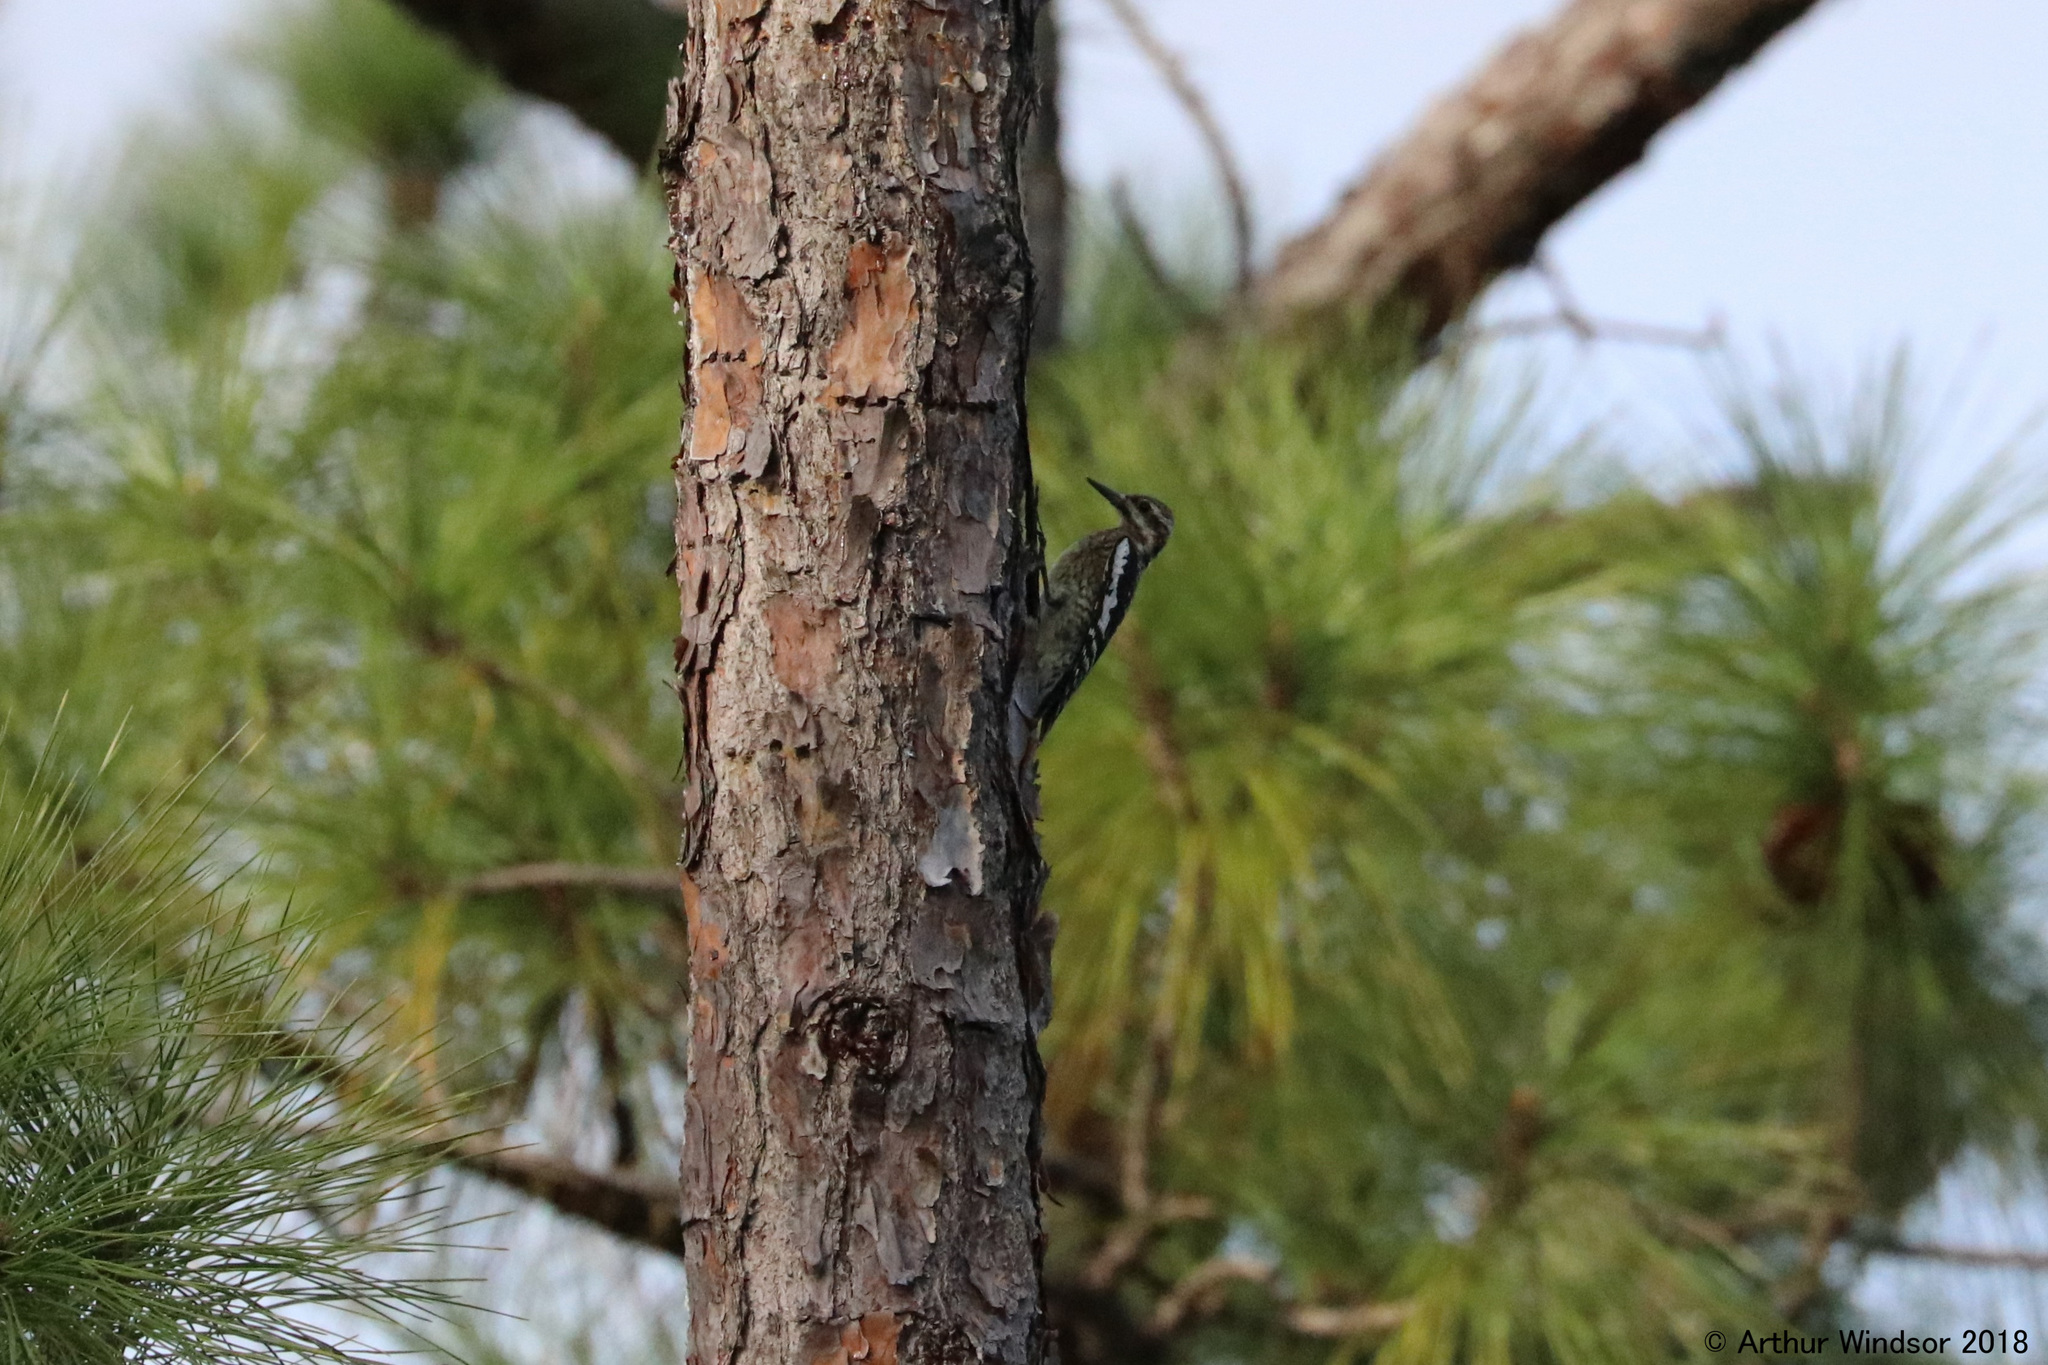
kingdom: Animalia
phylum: Chordata
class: Aves
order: Piciformes
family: Picidae
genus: Sphyrapicus
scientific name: Sphyrapicus varius
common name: Yellow-bellied sapsucker
